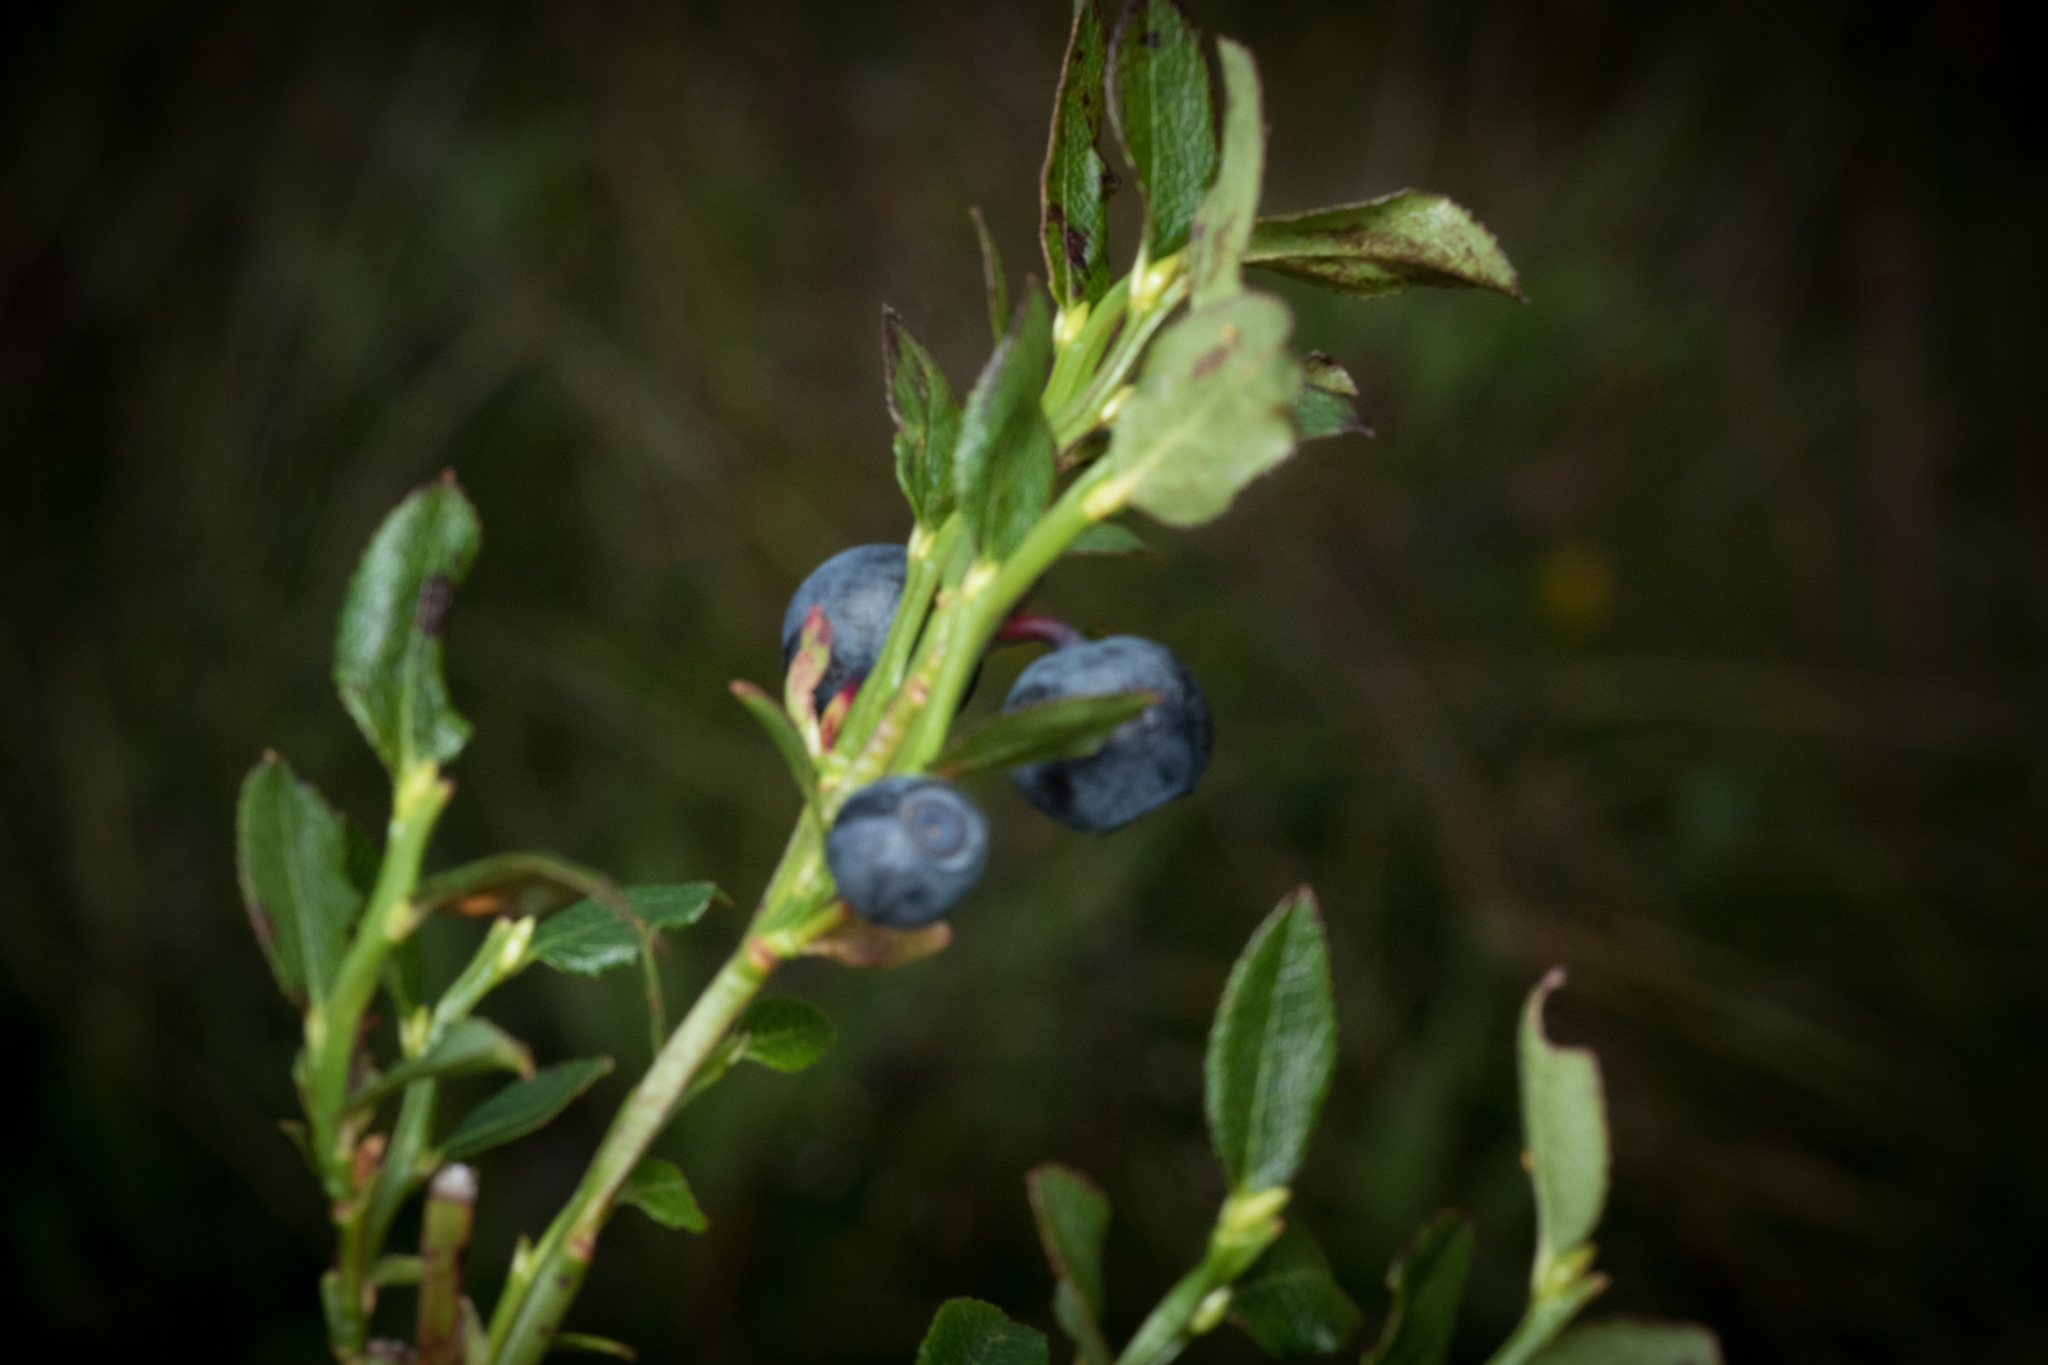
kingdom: Plantae
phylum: Tracheophyta
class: Magnoliopsida
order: Ericales
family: Ericaceae
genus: Vaccinium
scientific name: Vaccinium myrtillus
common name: Bilberry
